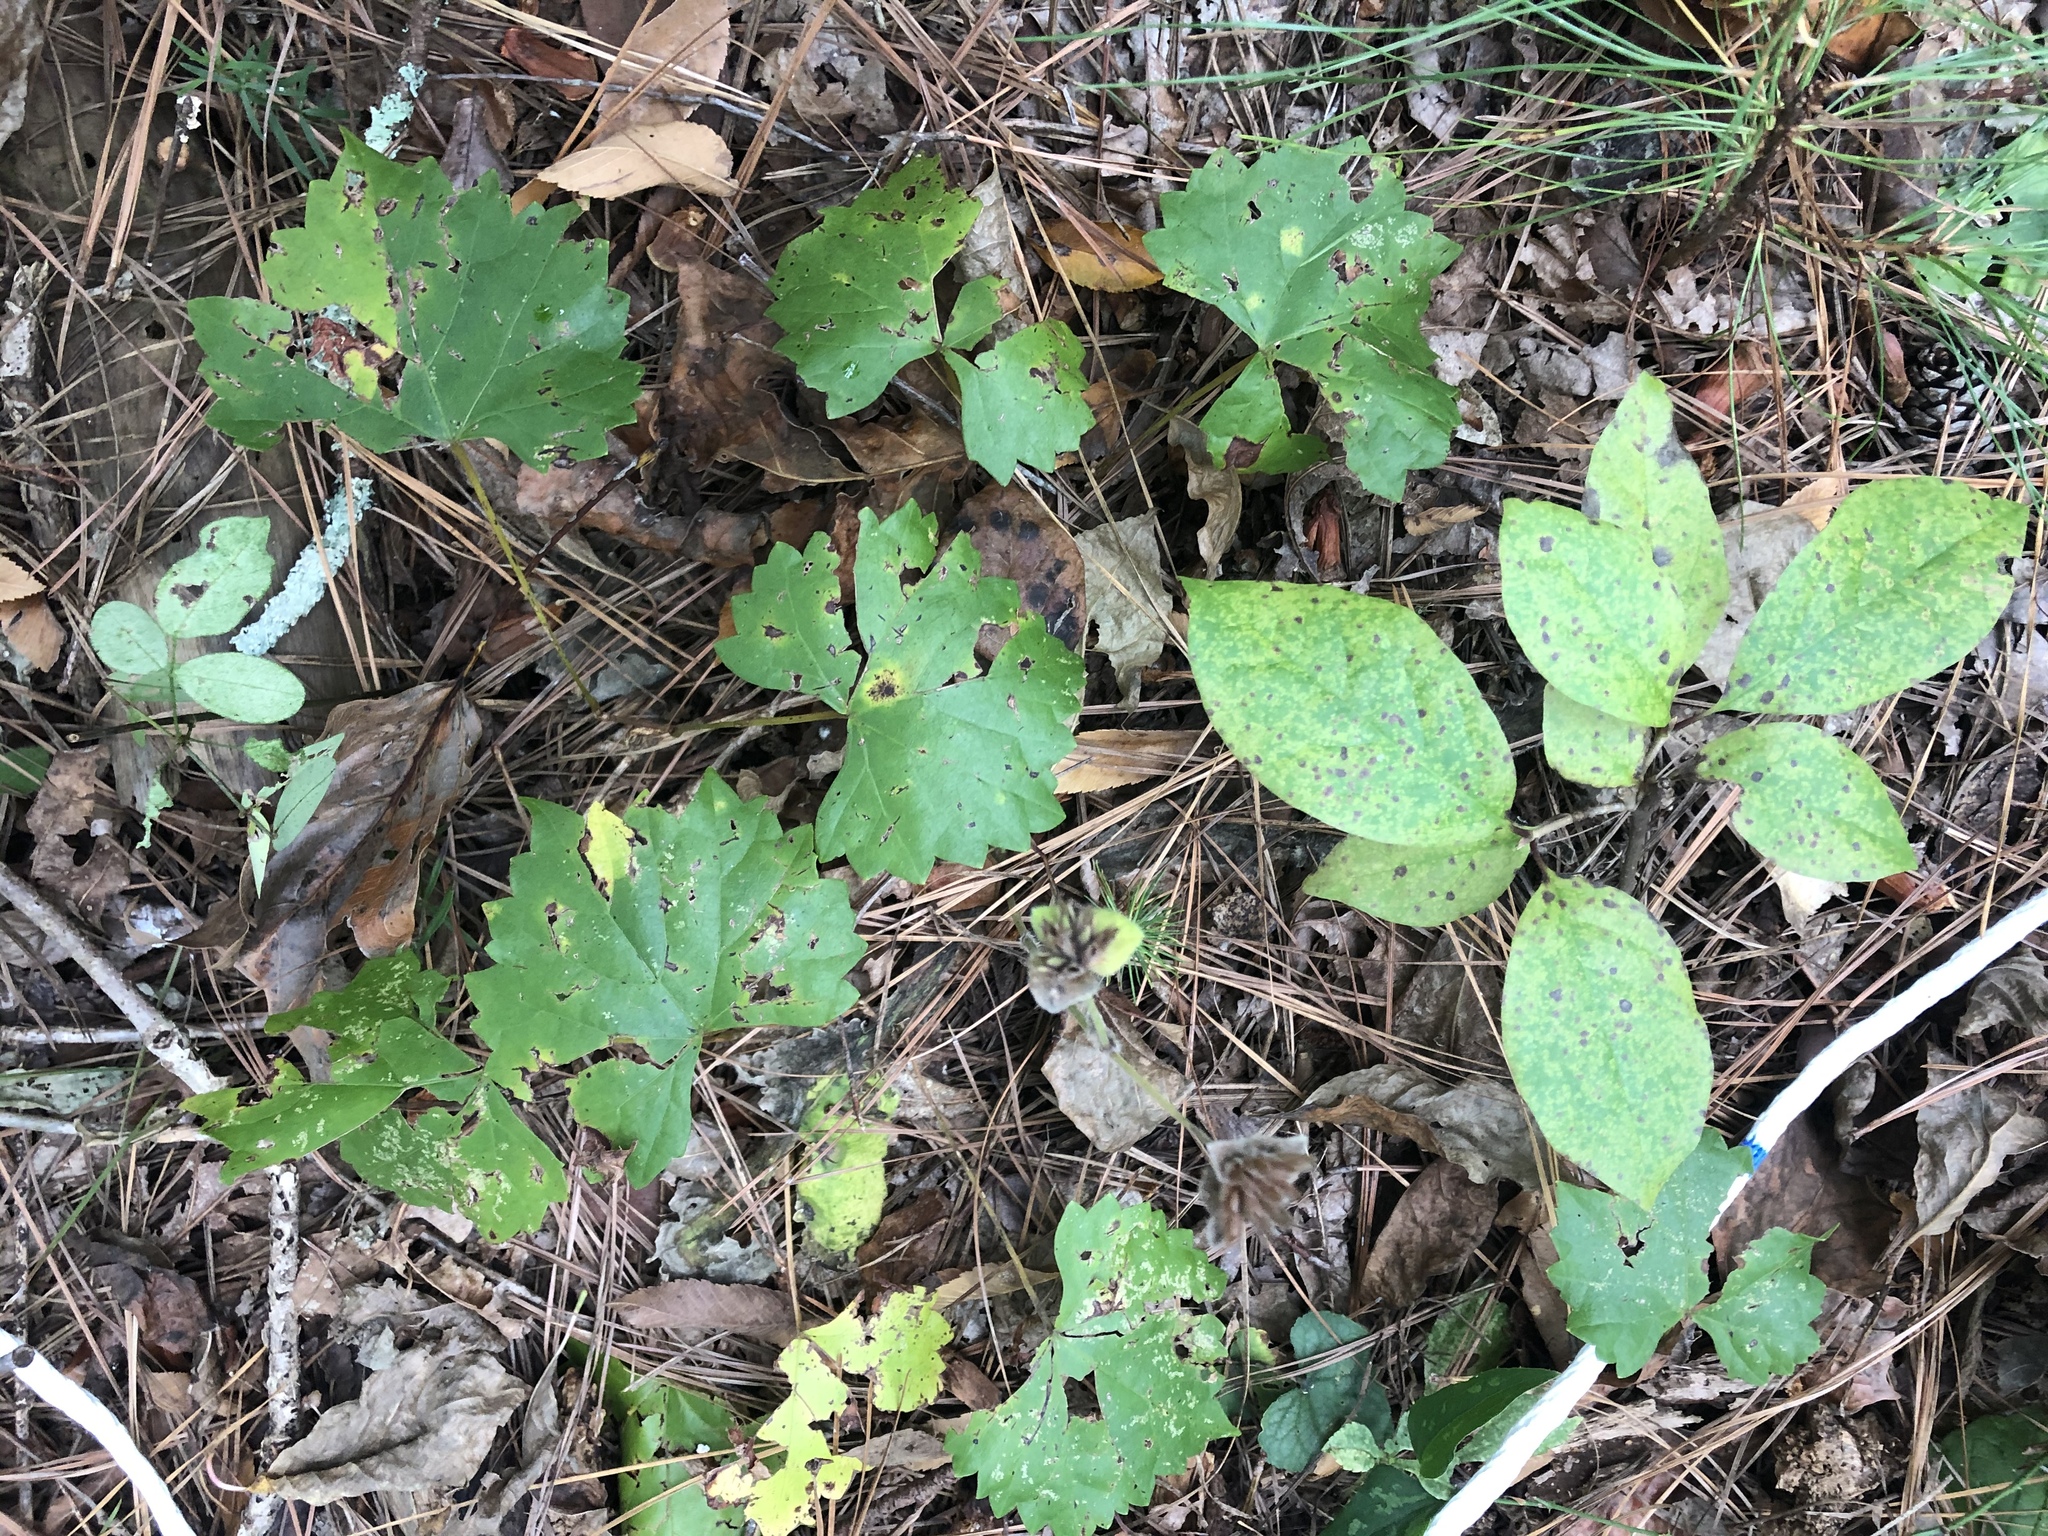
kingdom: Plantae
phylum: Tracheophyta
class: Magnoliopsida
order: Vitales
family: Vitaceae
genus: Vitis
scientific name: Vitis rotundifolia
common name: Muscadine grape
